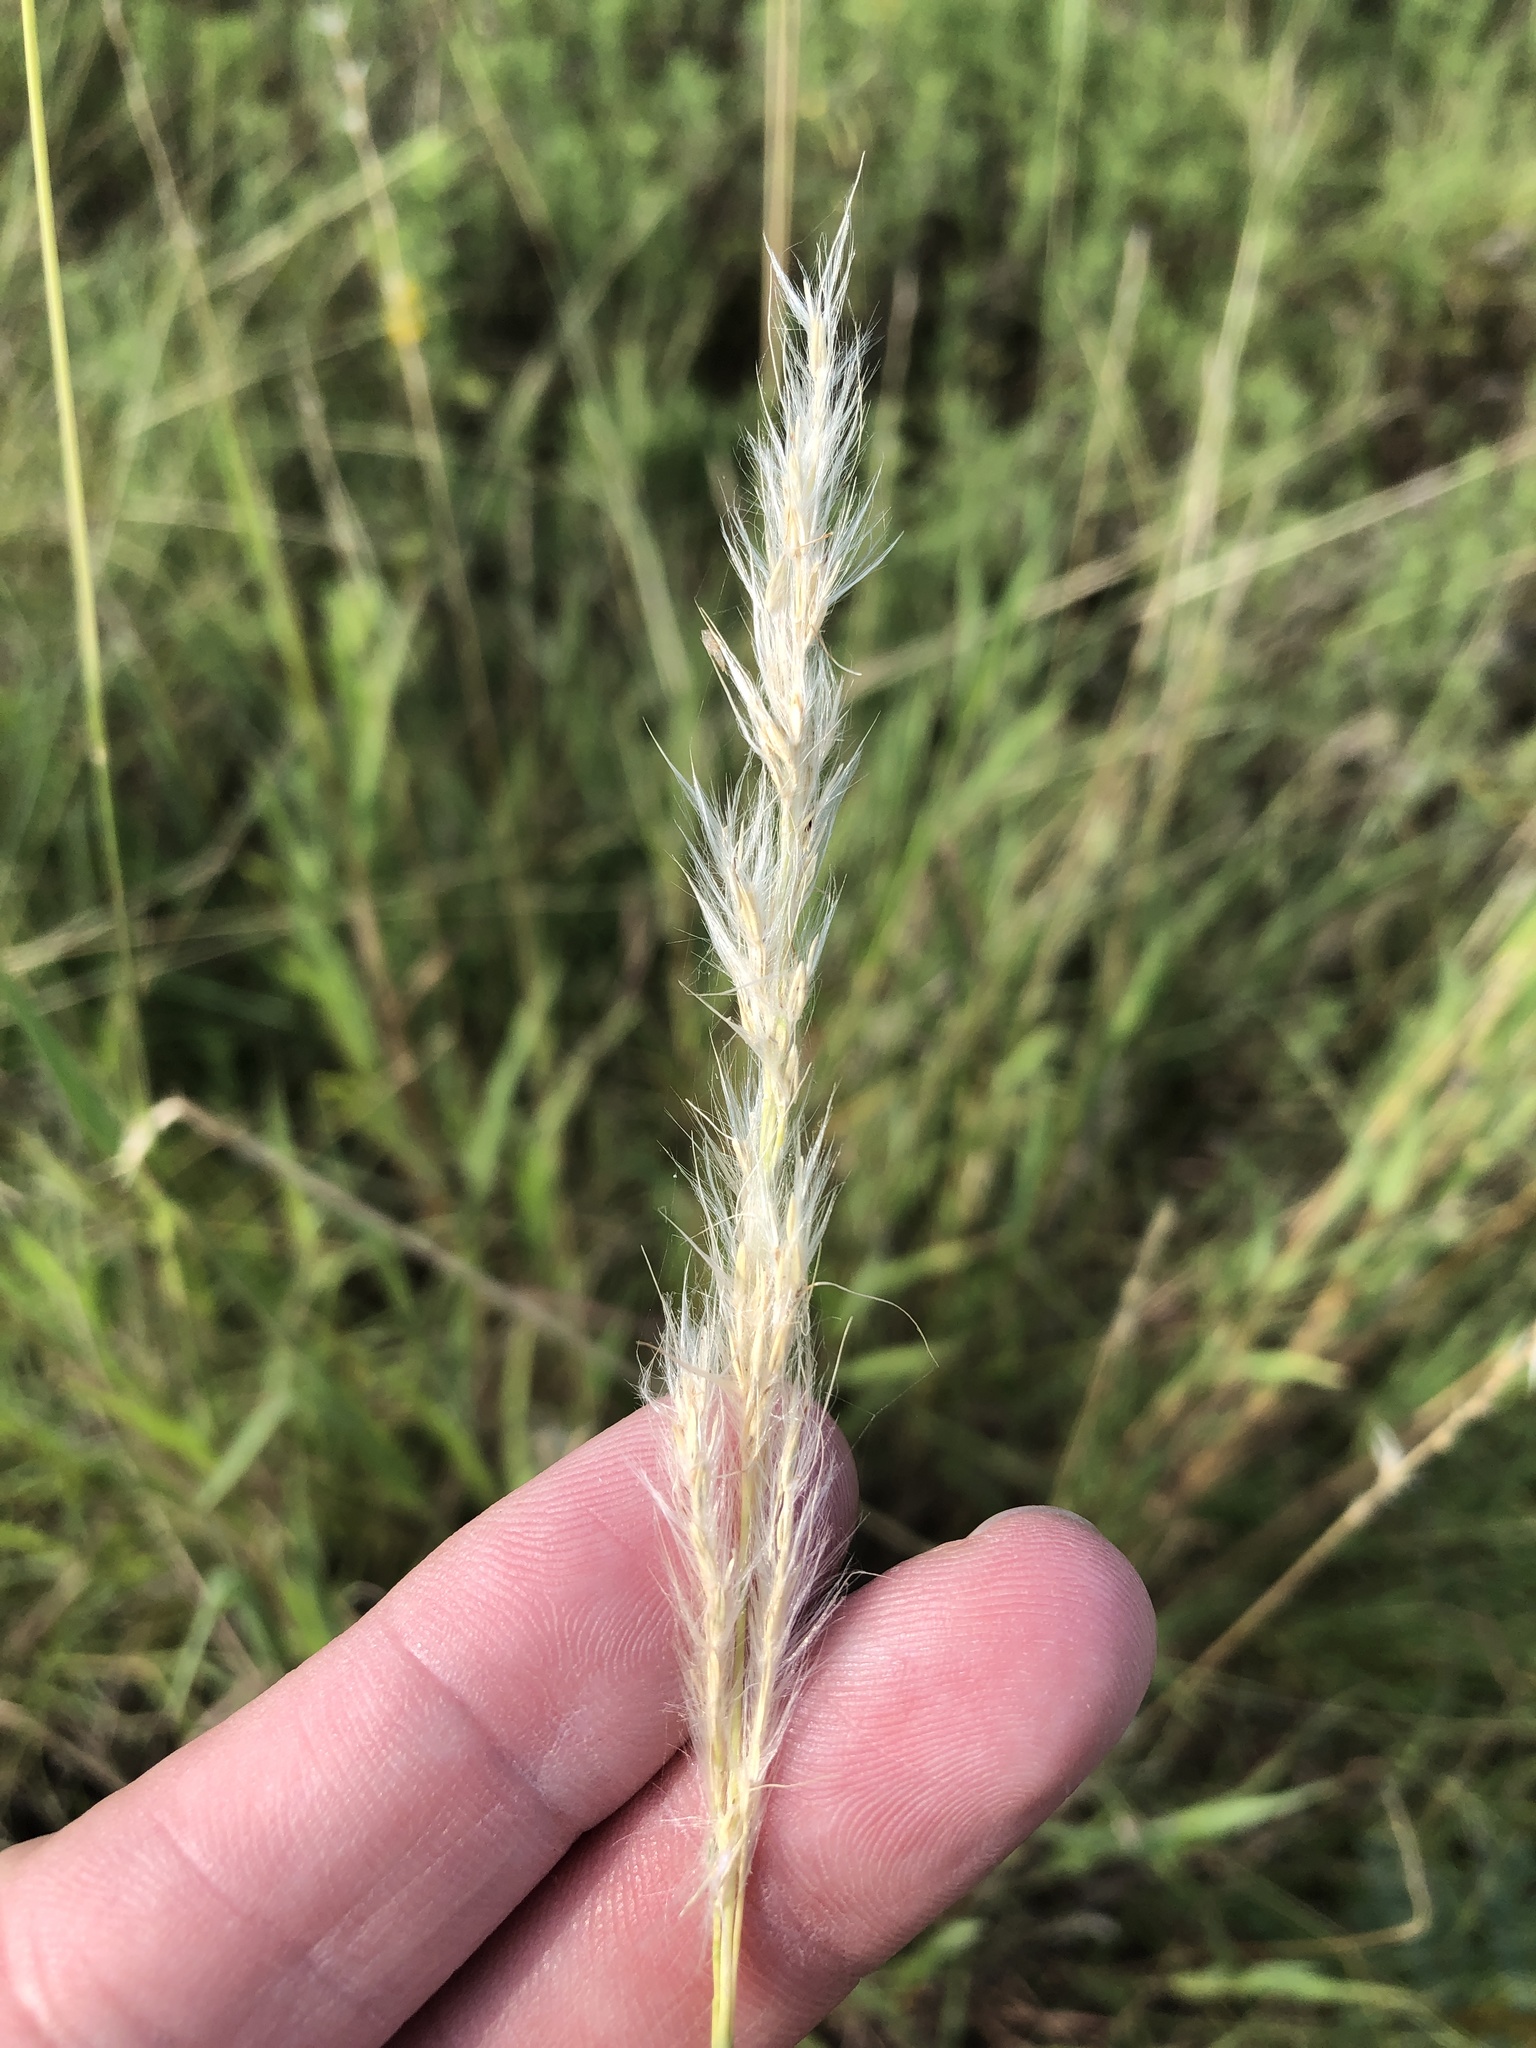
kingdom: Plantae
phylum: Tracheophyta
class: Liliopsida
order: Poales
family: Poaceae
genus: Bothriochloa
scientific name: Bothriochloa torreyana
